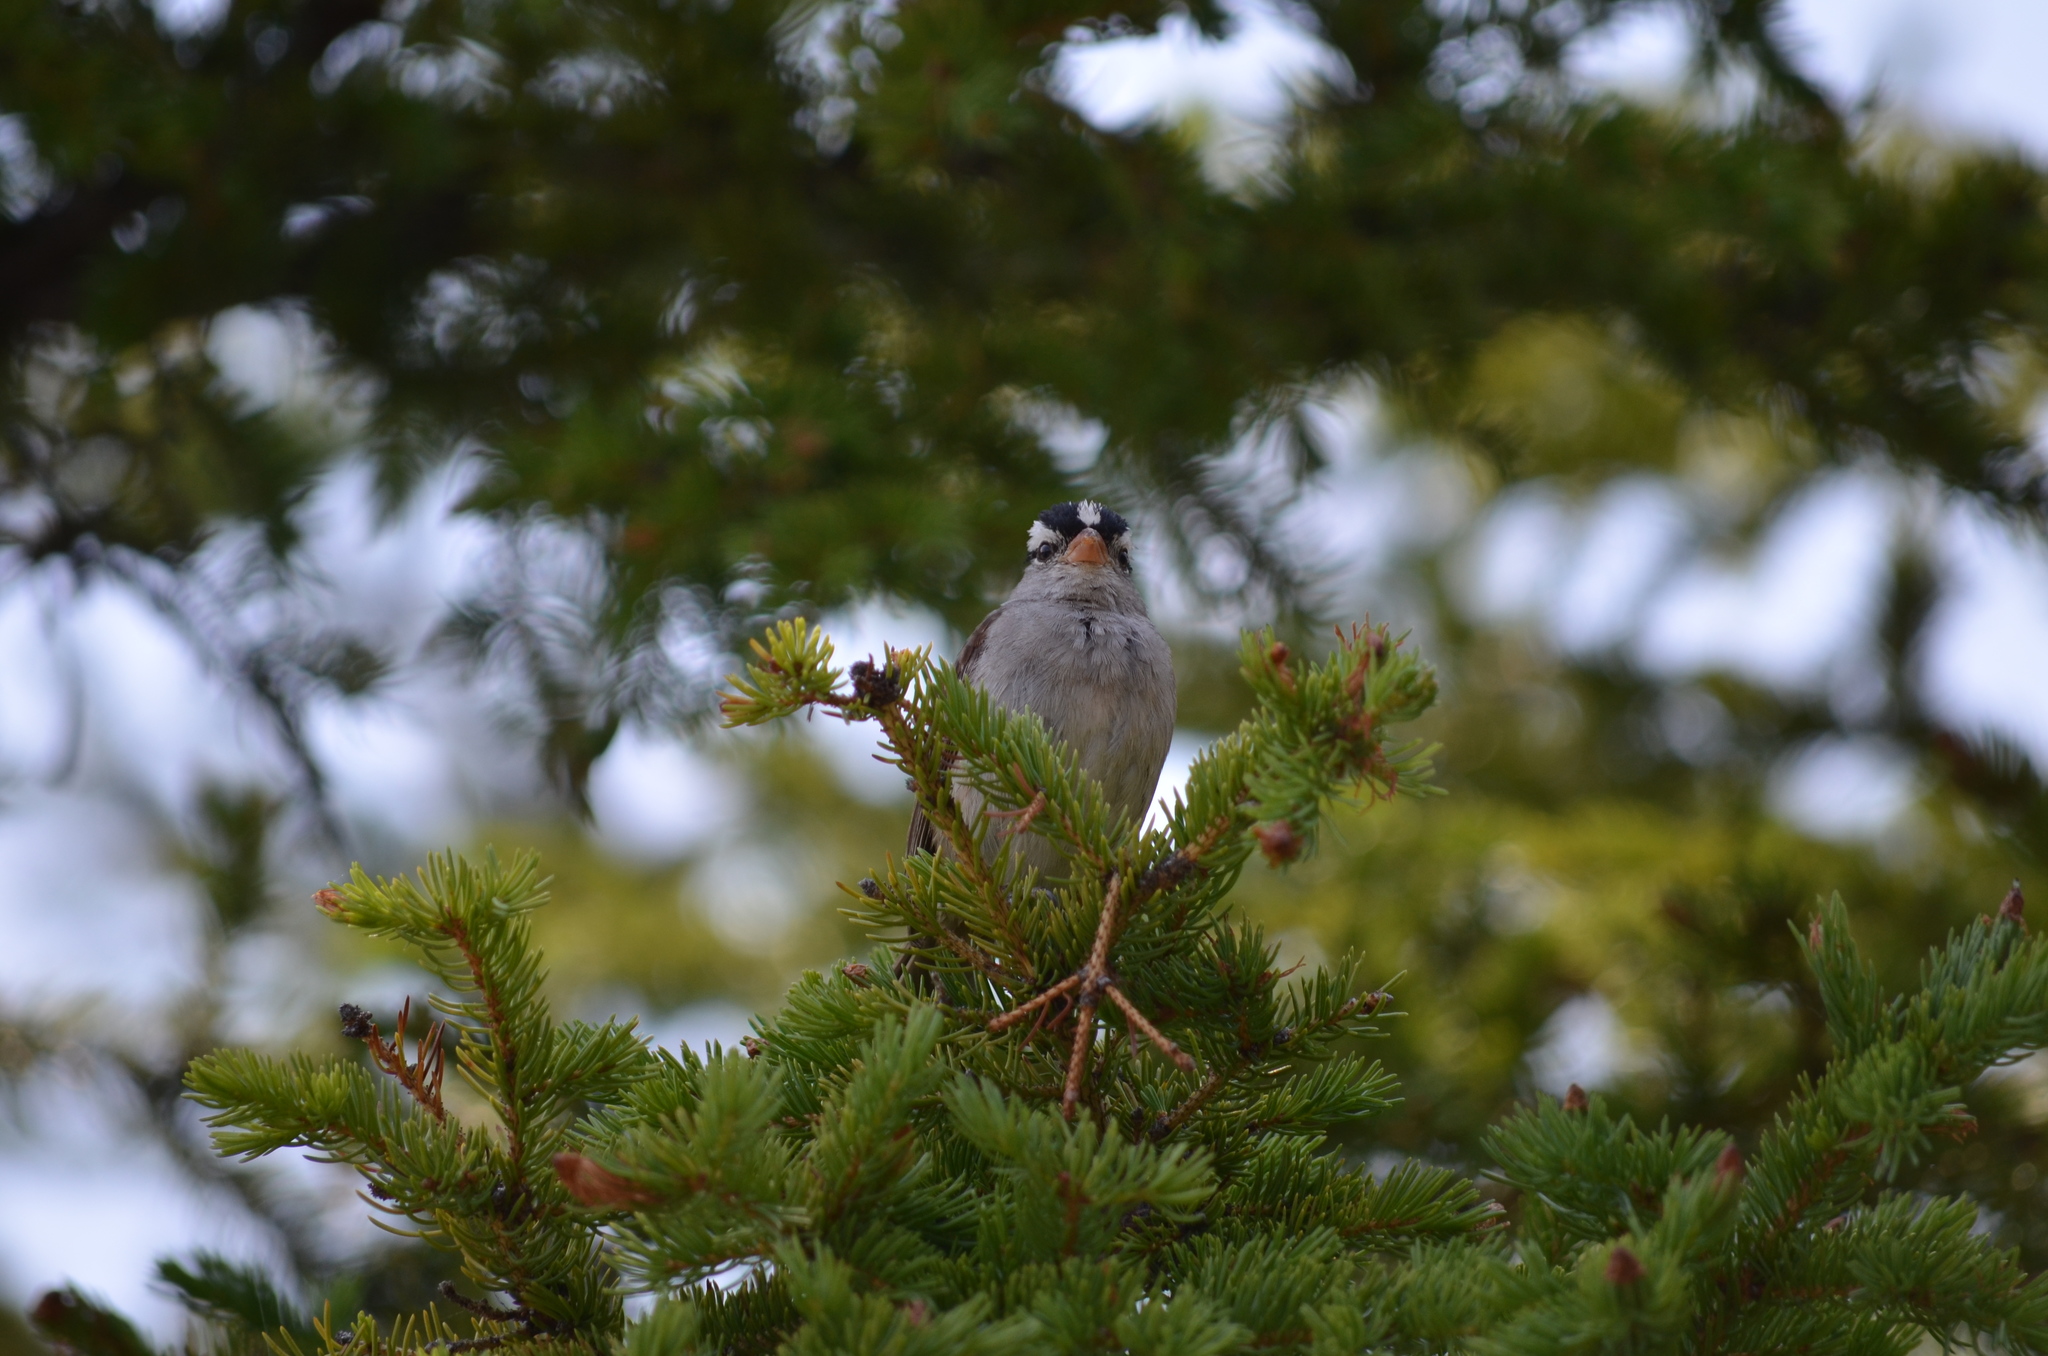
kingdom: Animalia
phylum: Chordata
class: Aves
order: Passeriformes
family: Passerellidae
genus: Zonotrichia
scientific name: Zonotrichia leucophrys
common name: White-crowned sparrow
